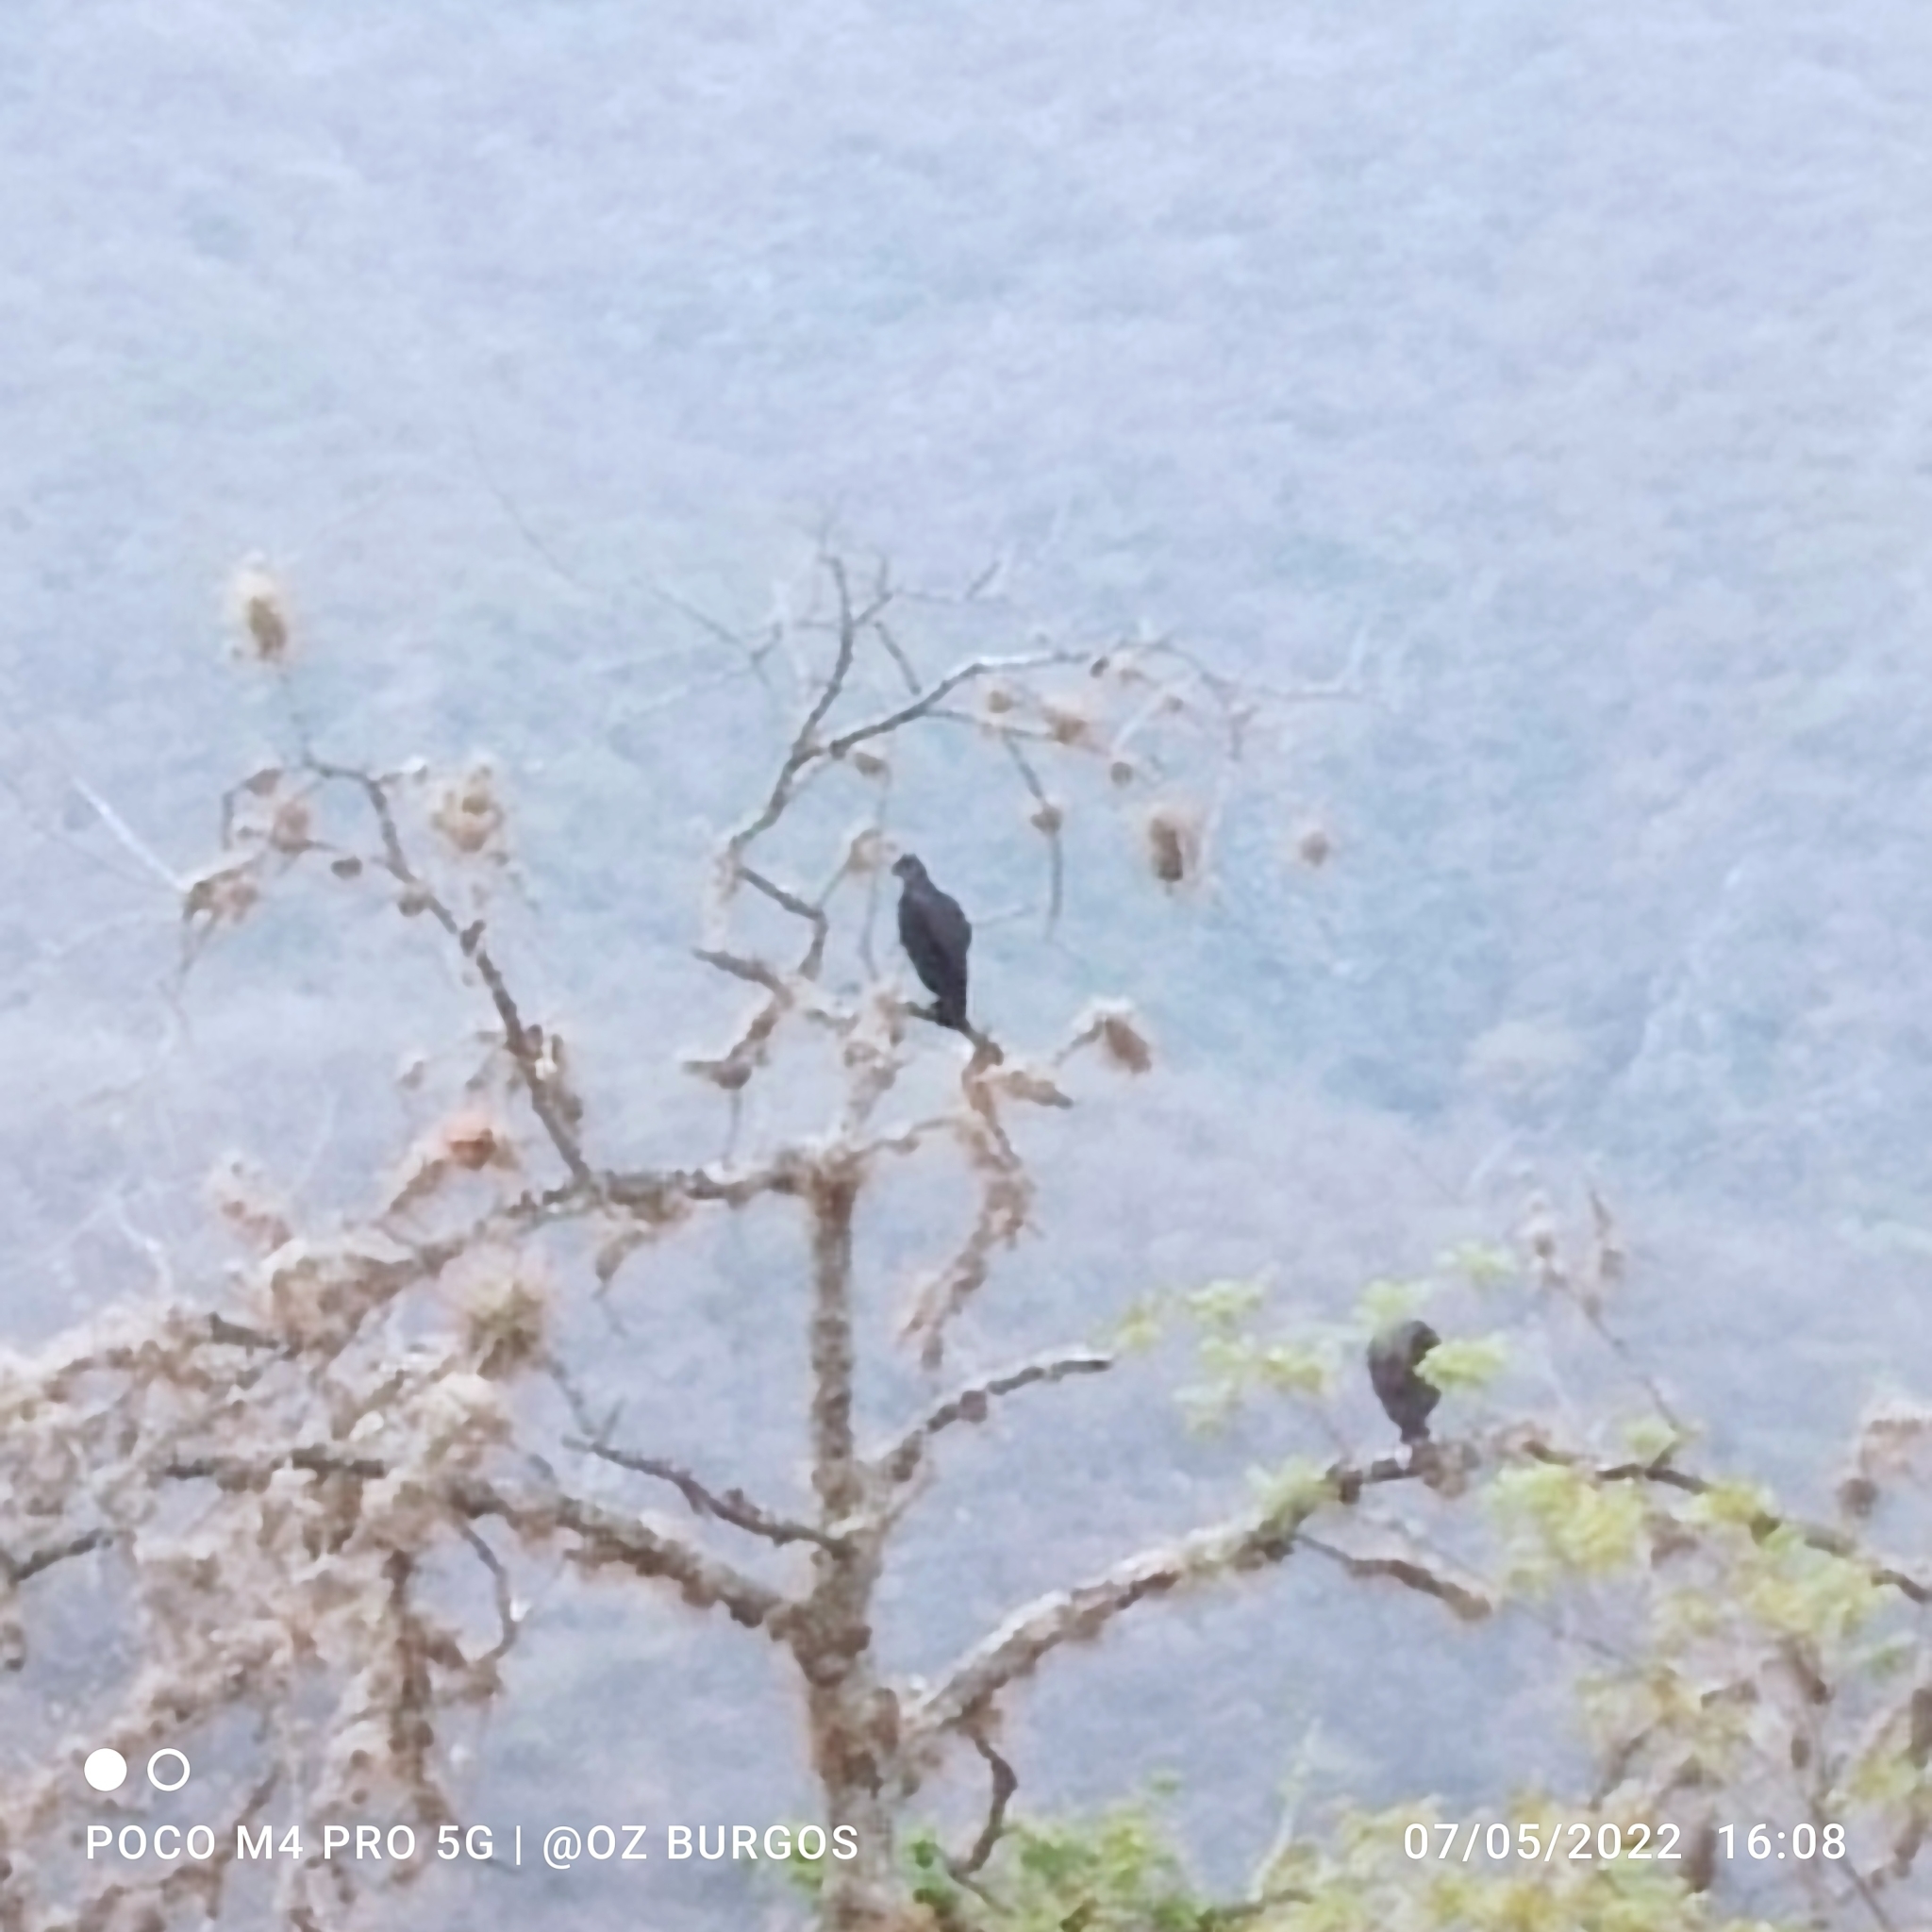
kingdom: Animalia
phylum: Chordata
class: Aves
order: Accipitriformes
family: Cathartidae
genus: Coragyps
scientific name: Coragyps atratus
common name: Black vulture
